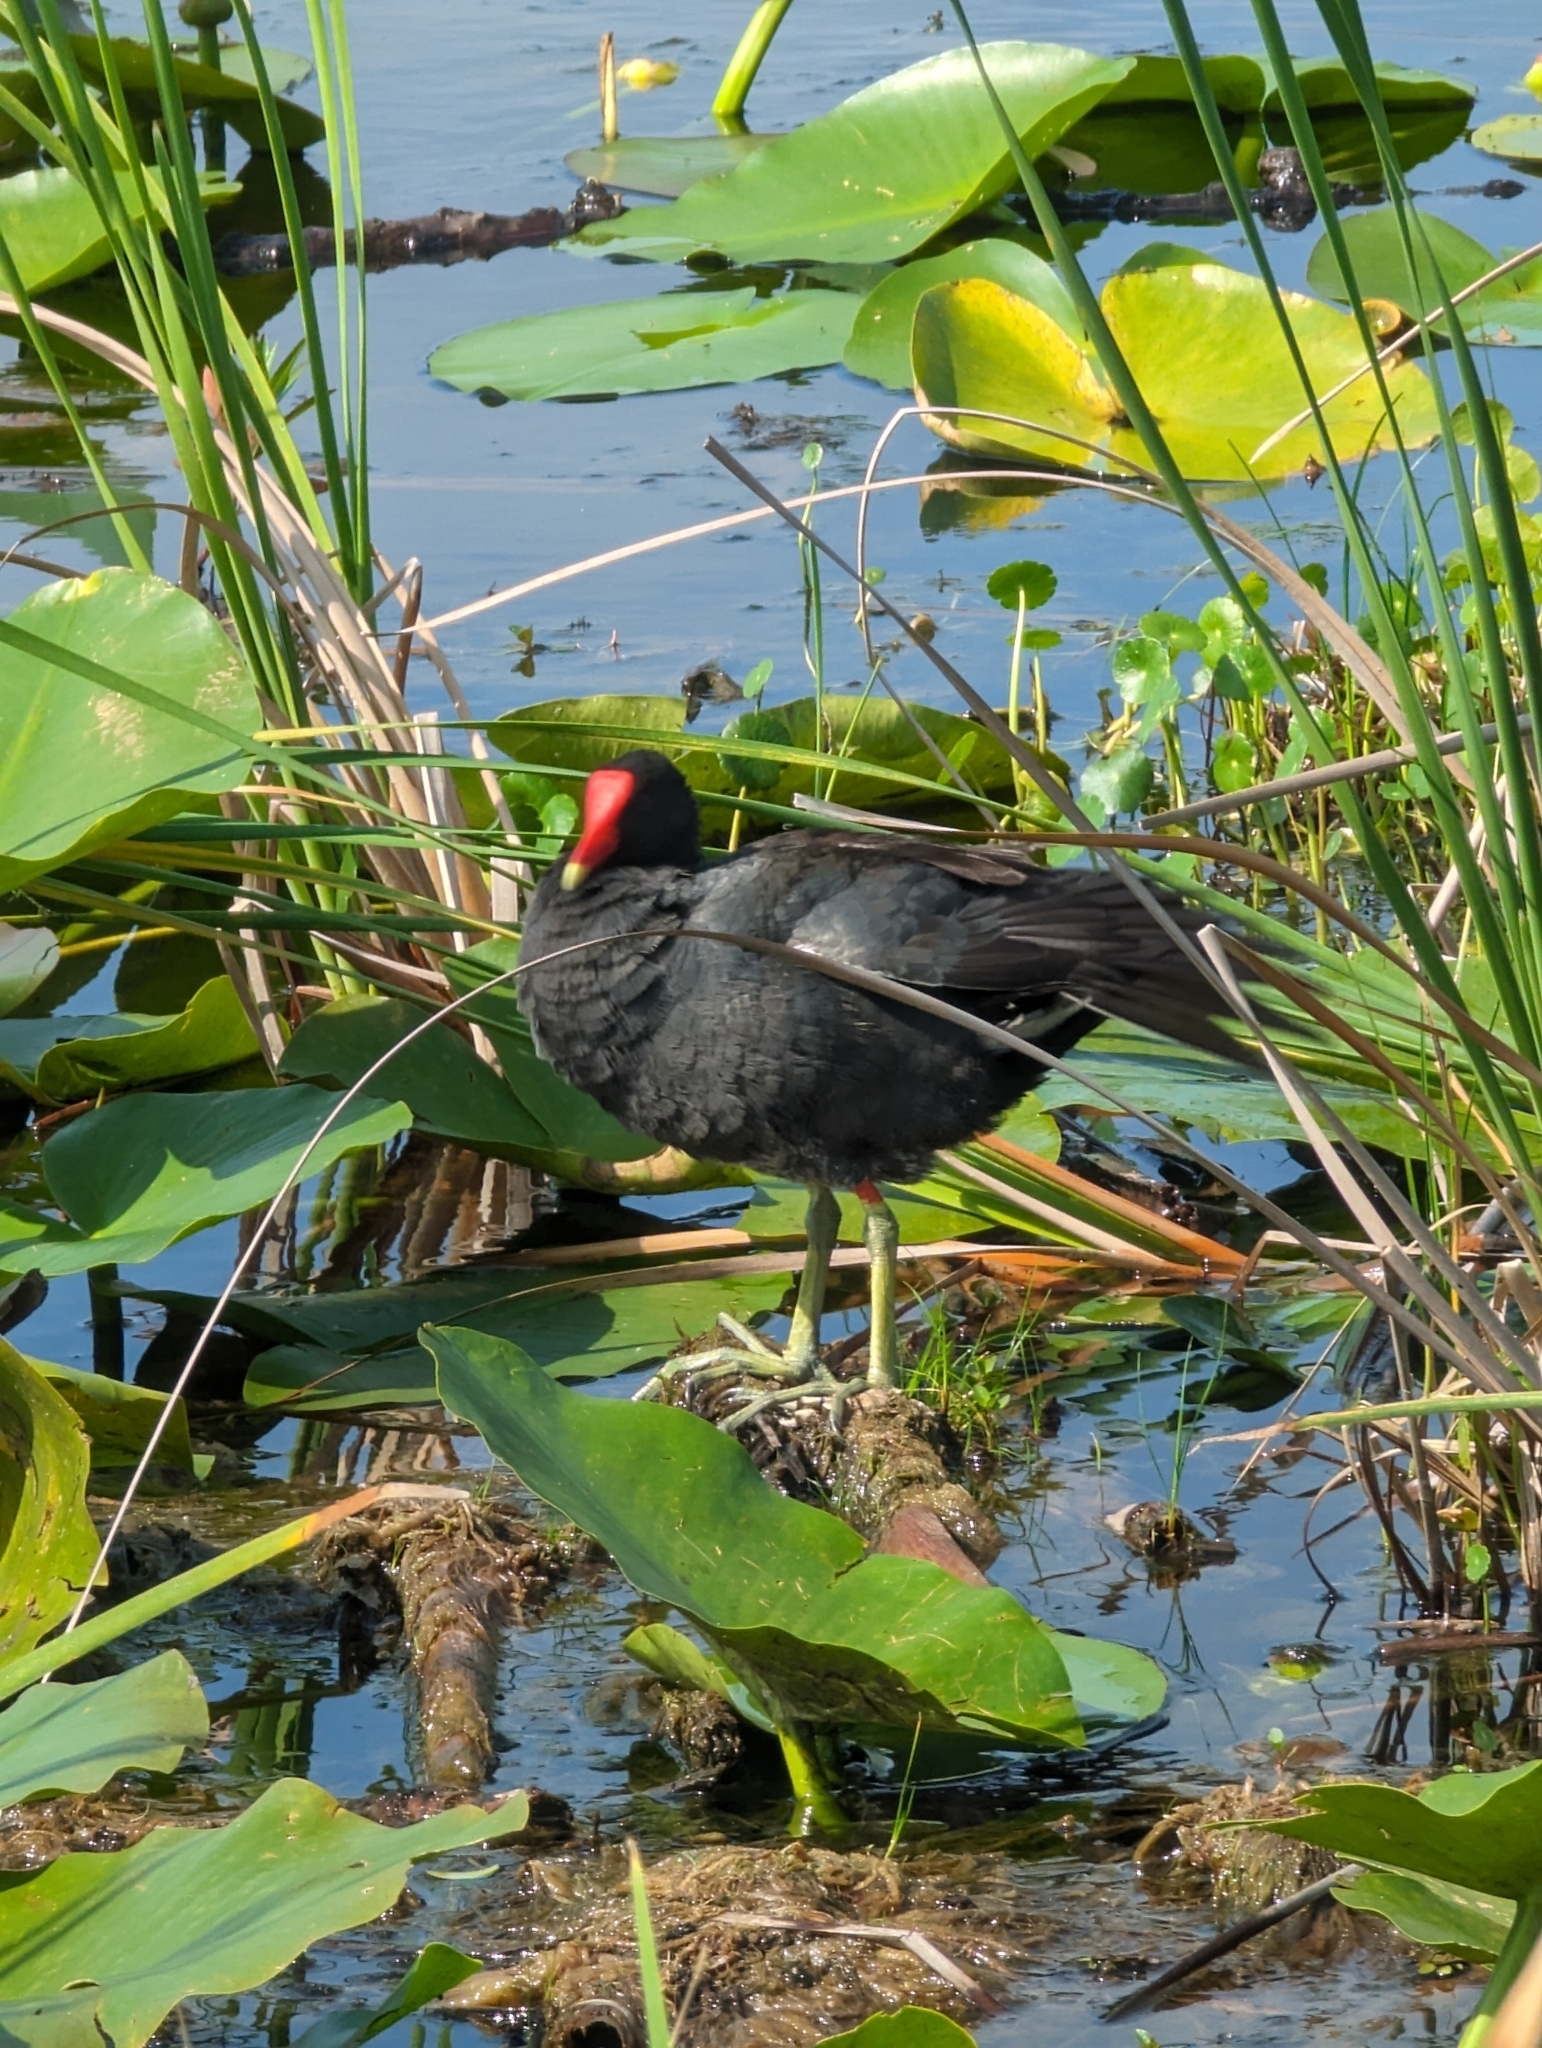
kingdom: Animalia
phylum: Chordata
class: Aves
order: Gruiformes
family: Rallidae
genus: Gallinula
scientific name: Gallinula chloropus
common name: Common moorhen
